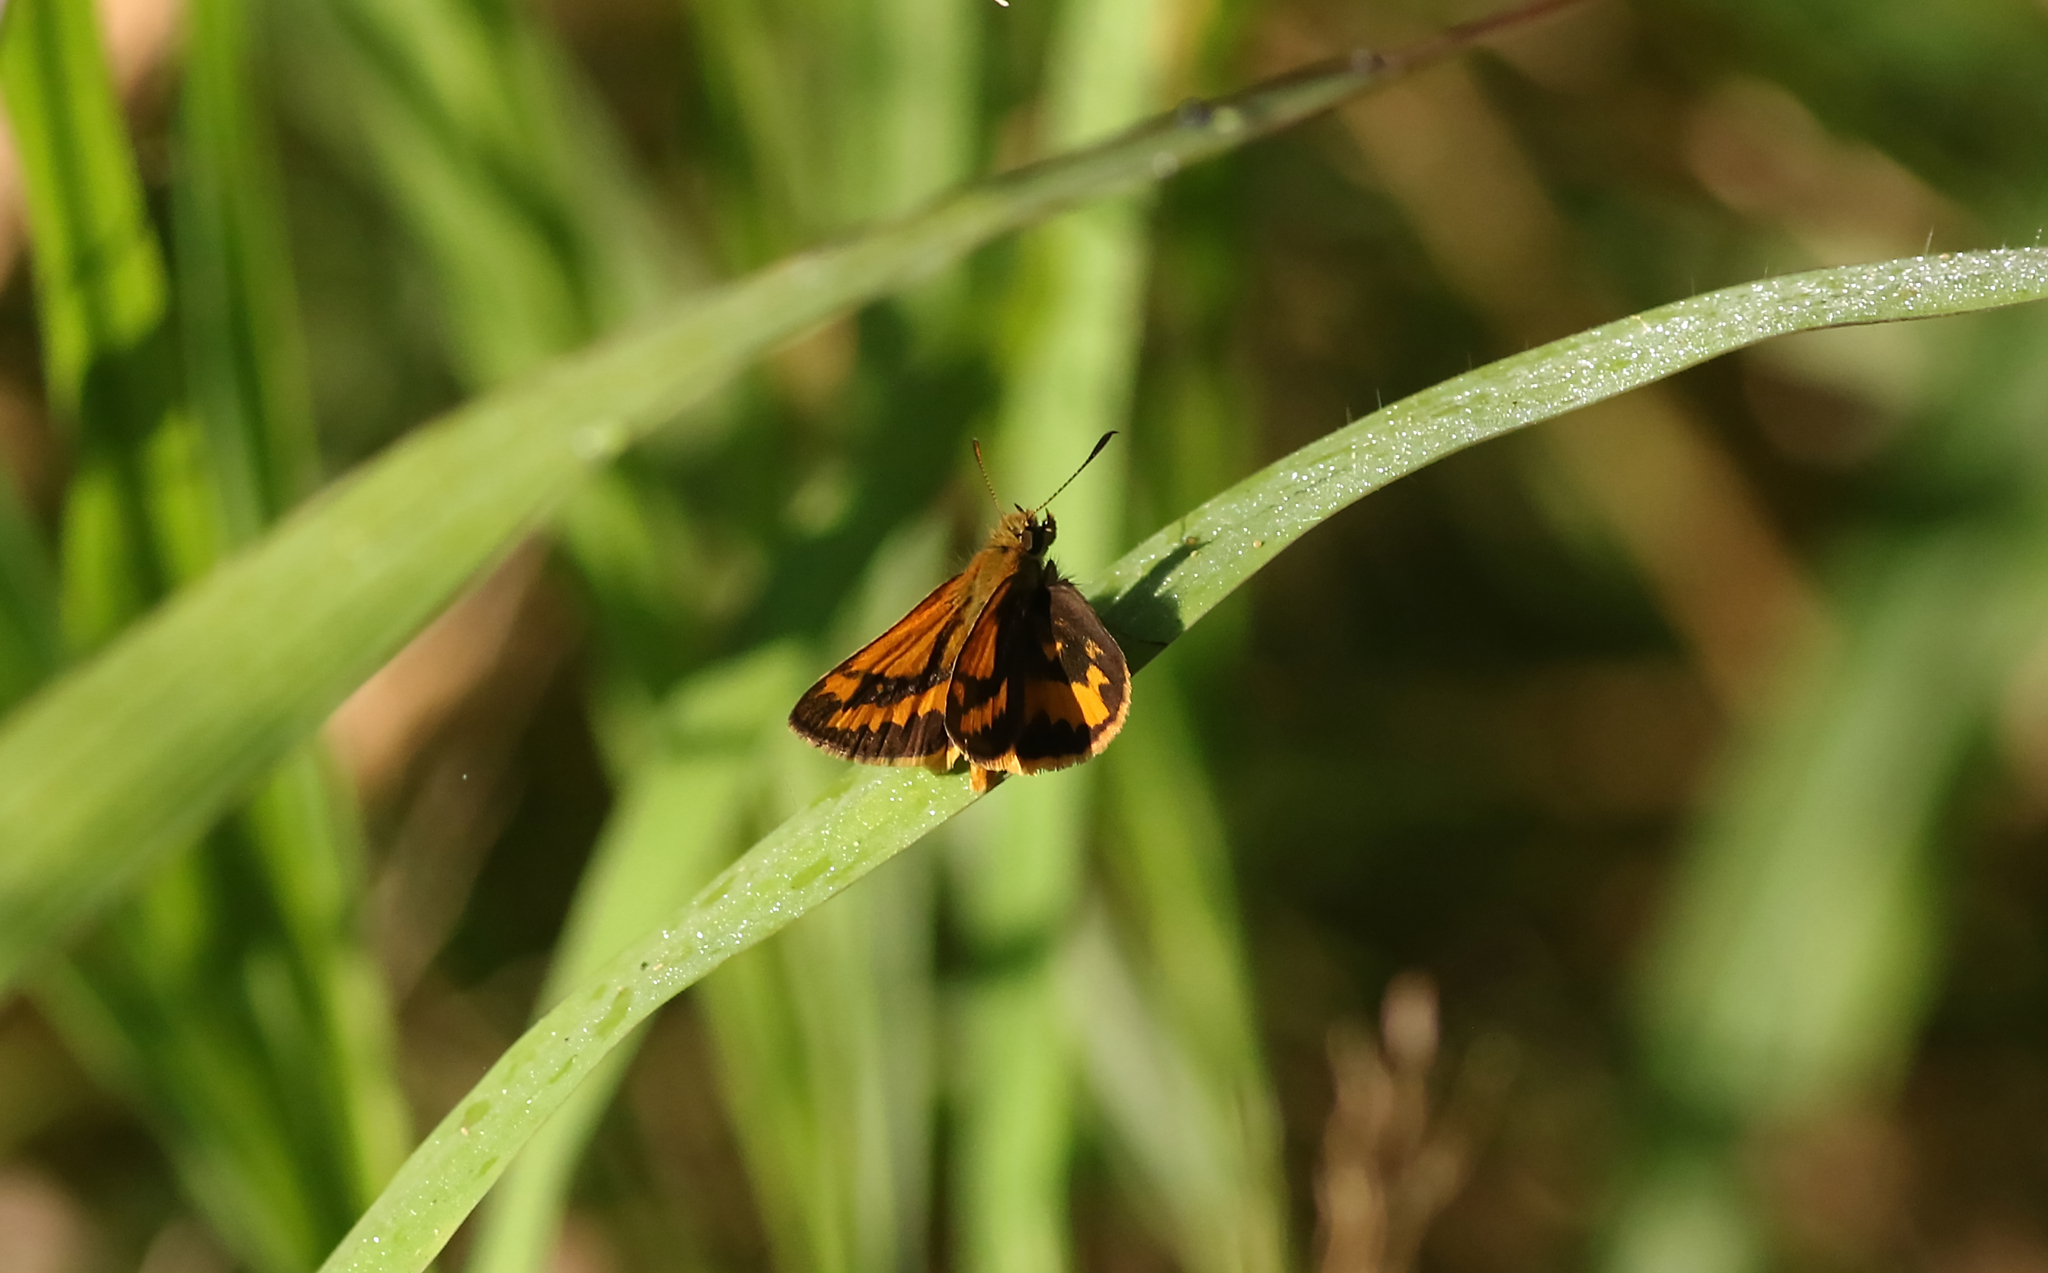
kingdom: Animalia
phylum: Arthropoda
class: Insecta
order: Lepidoptera
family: Hesperiidae
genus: Suniana
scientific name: Suniana sunias
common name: Wide-brand grass-dart
